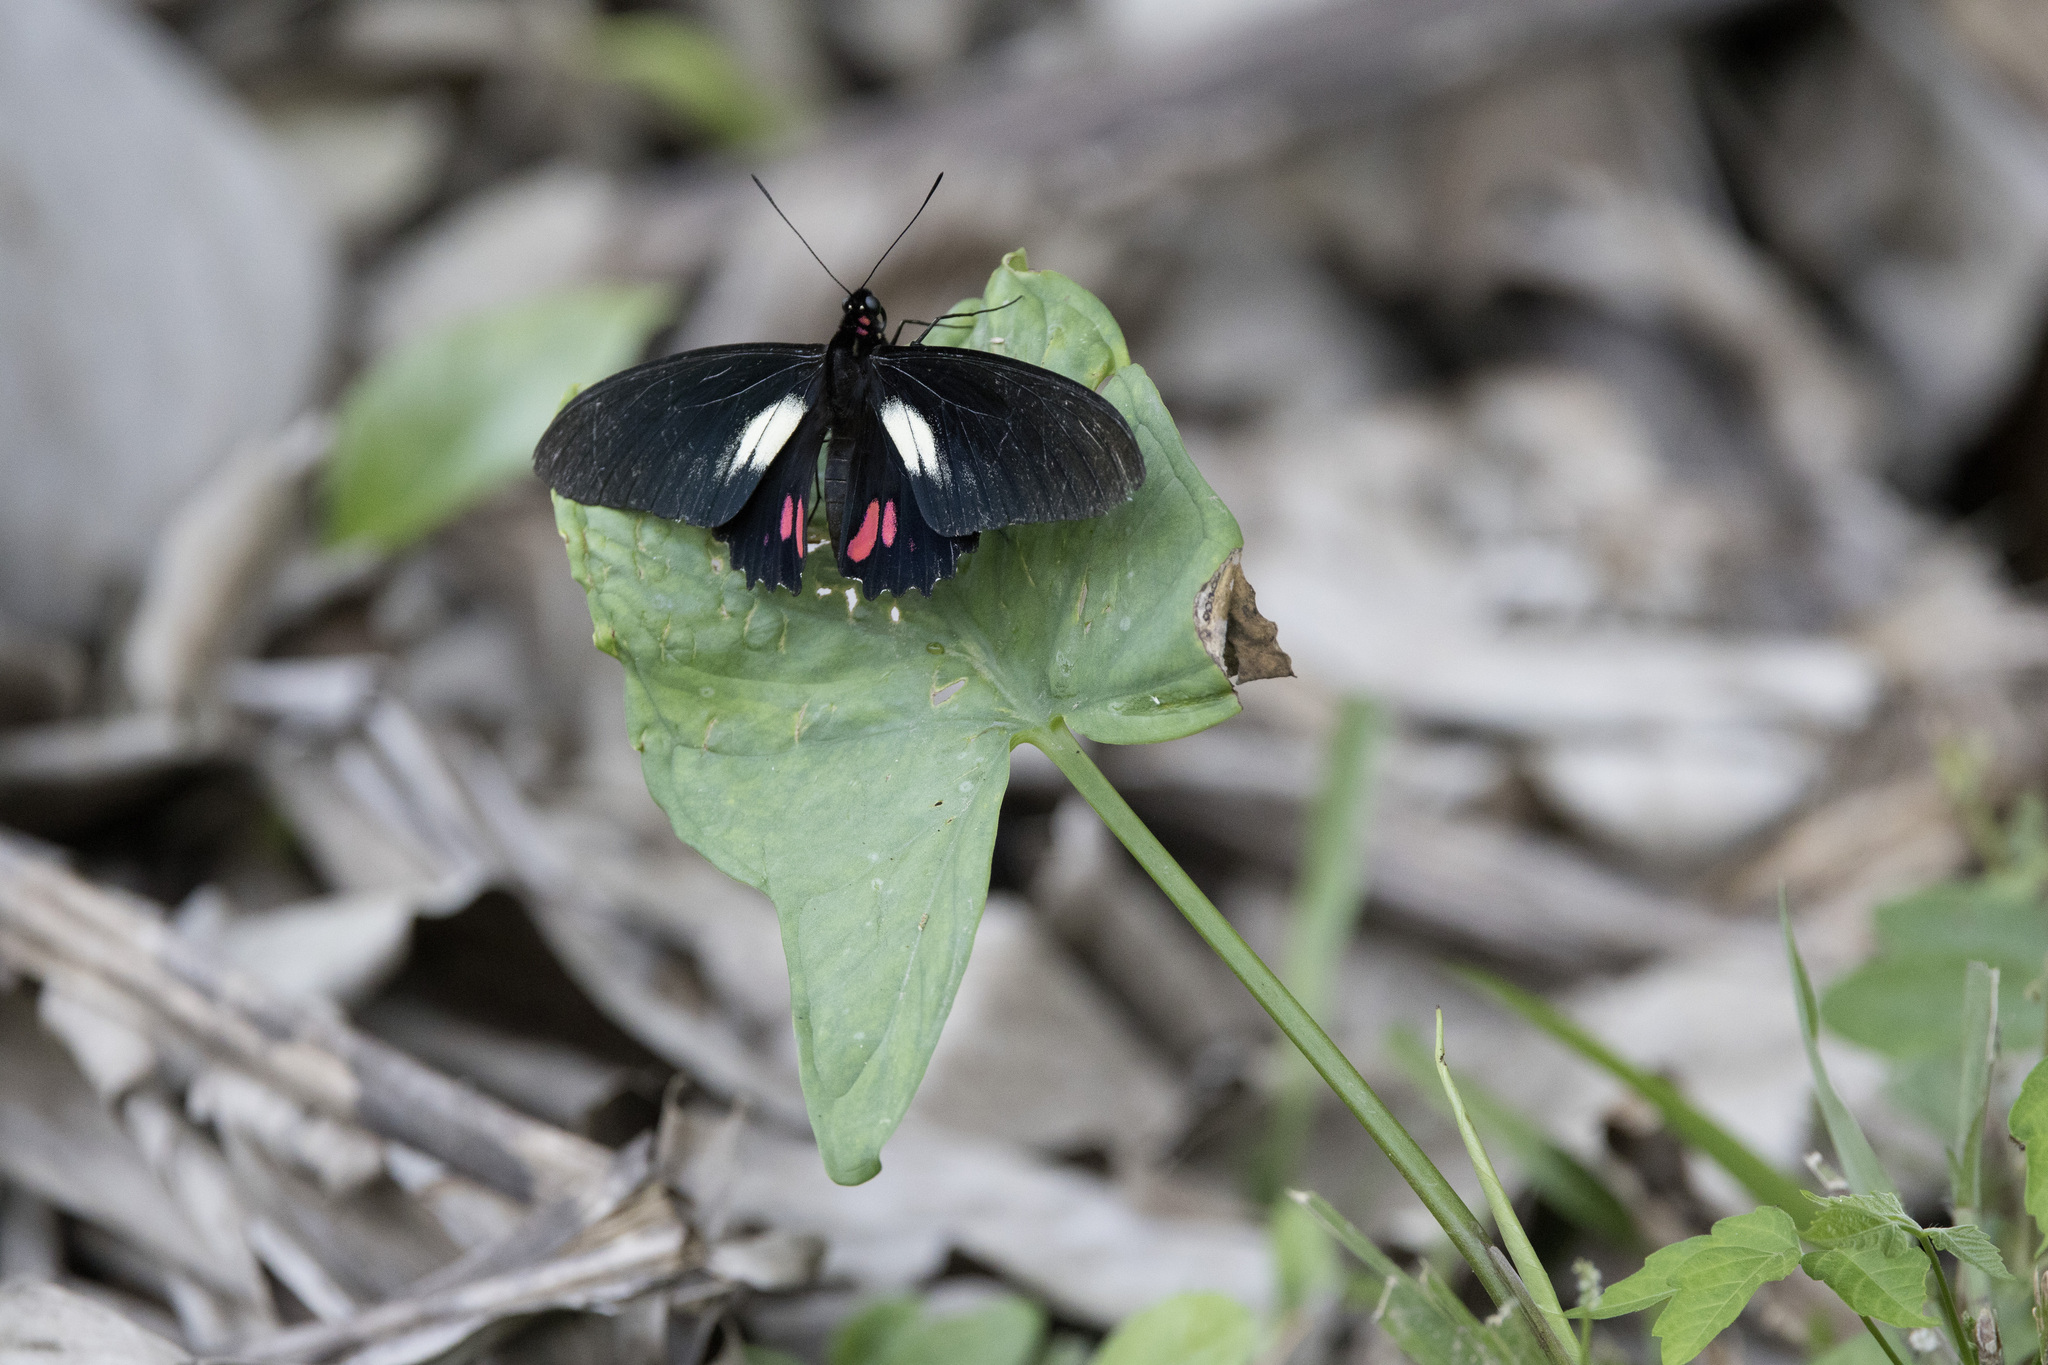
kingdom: Animalia
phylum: Arthropoda
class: Insecta
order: Lepidoptera
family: Papilionidae
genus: Papilio
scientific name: Papilio hyppason
